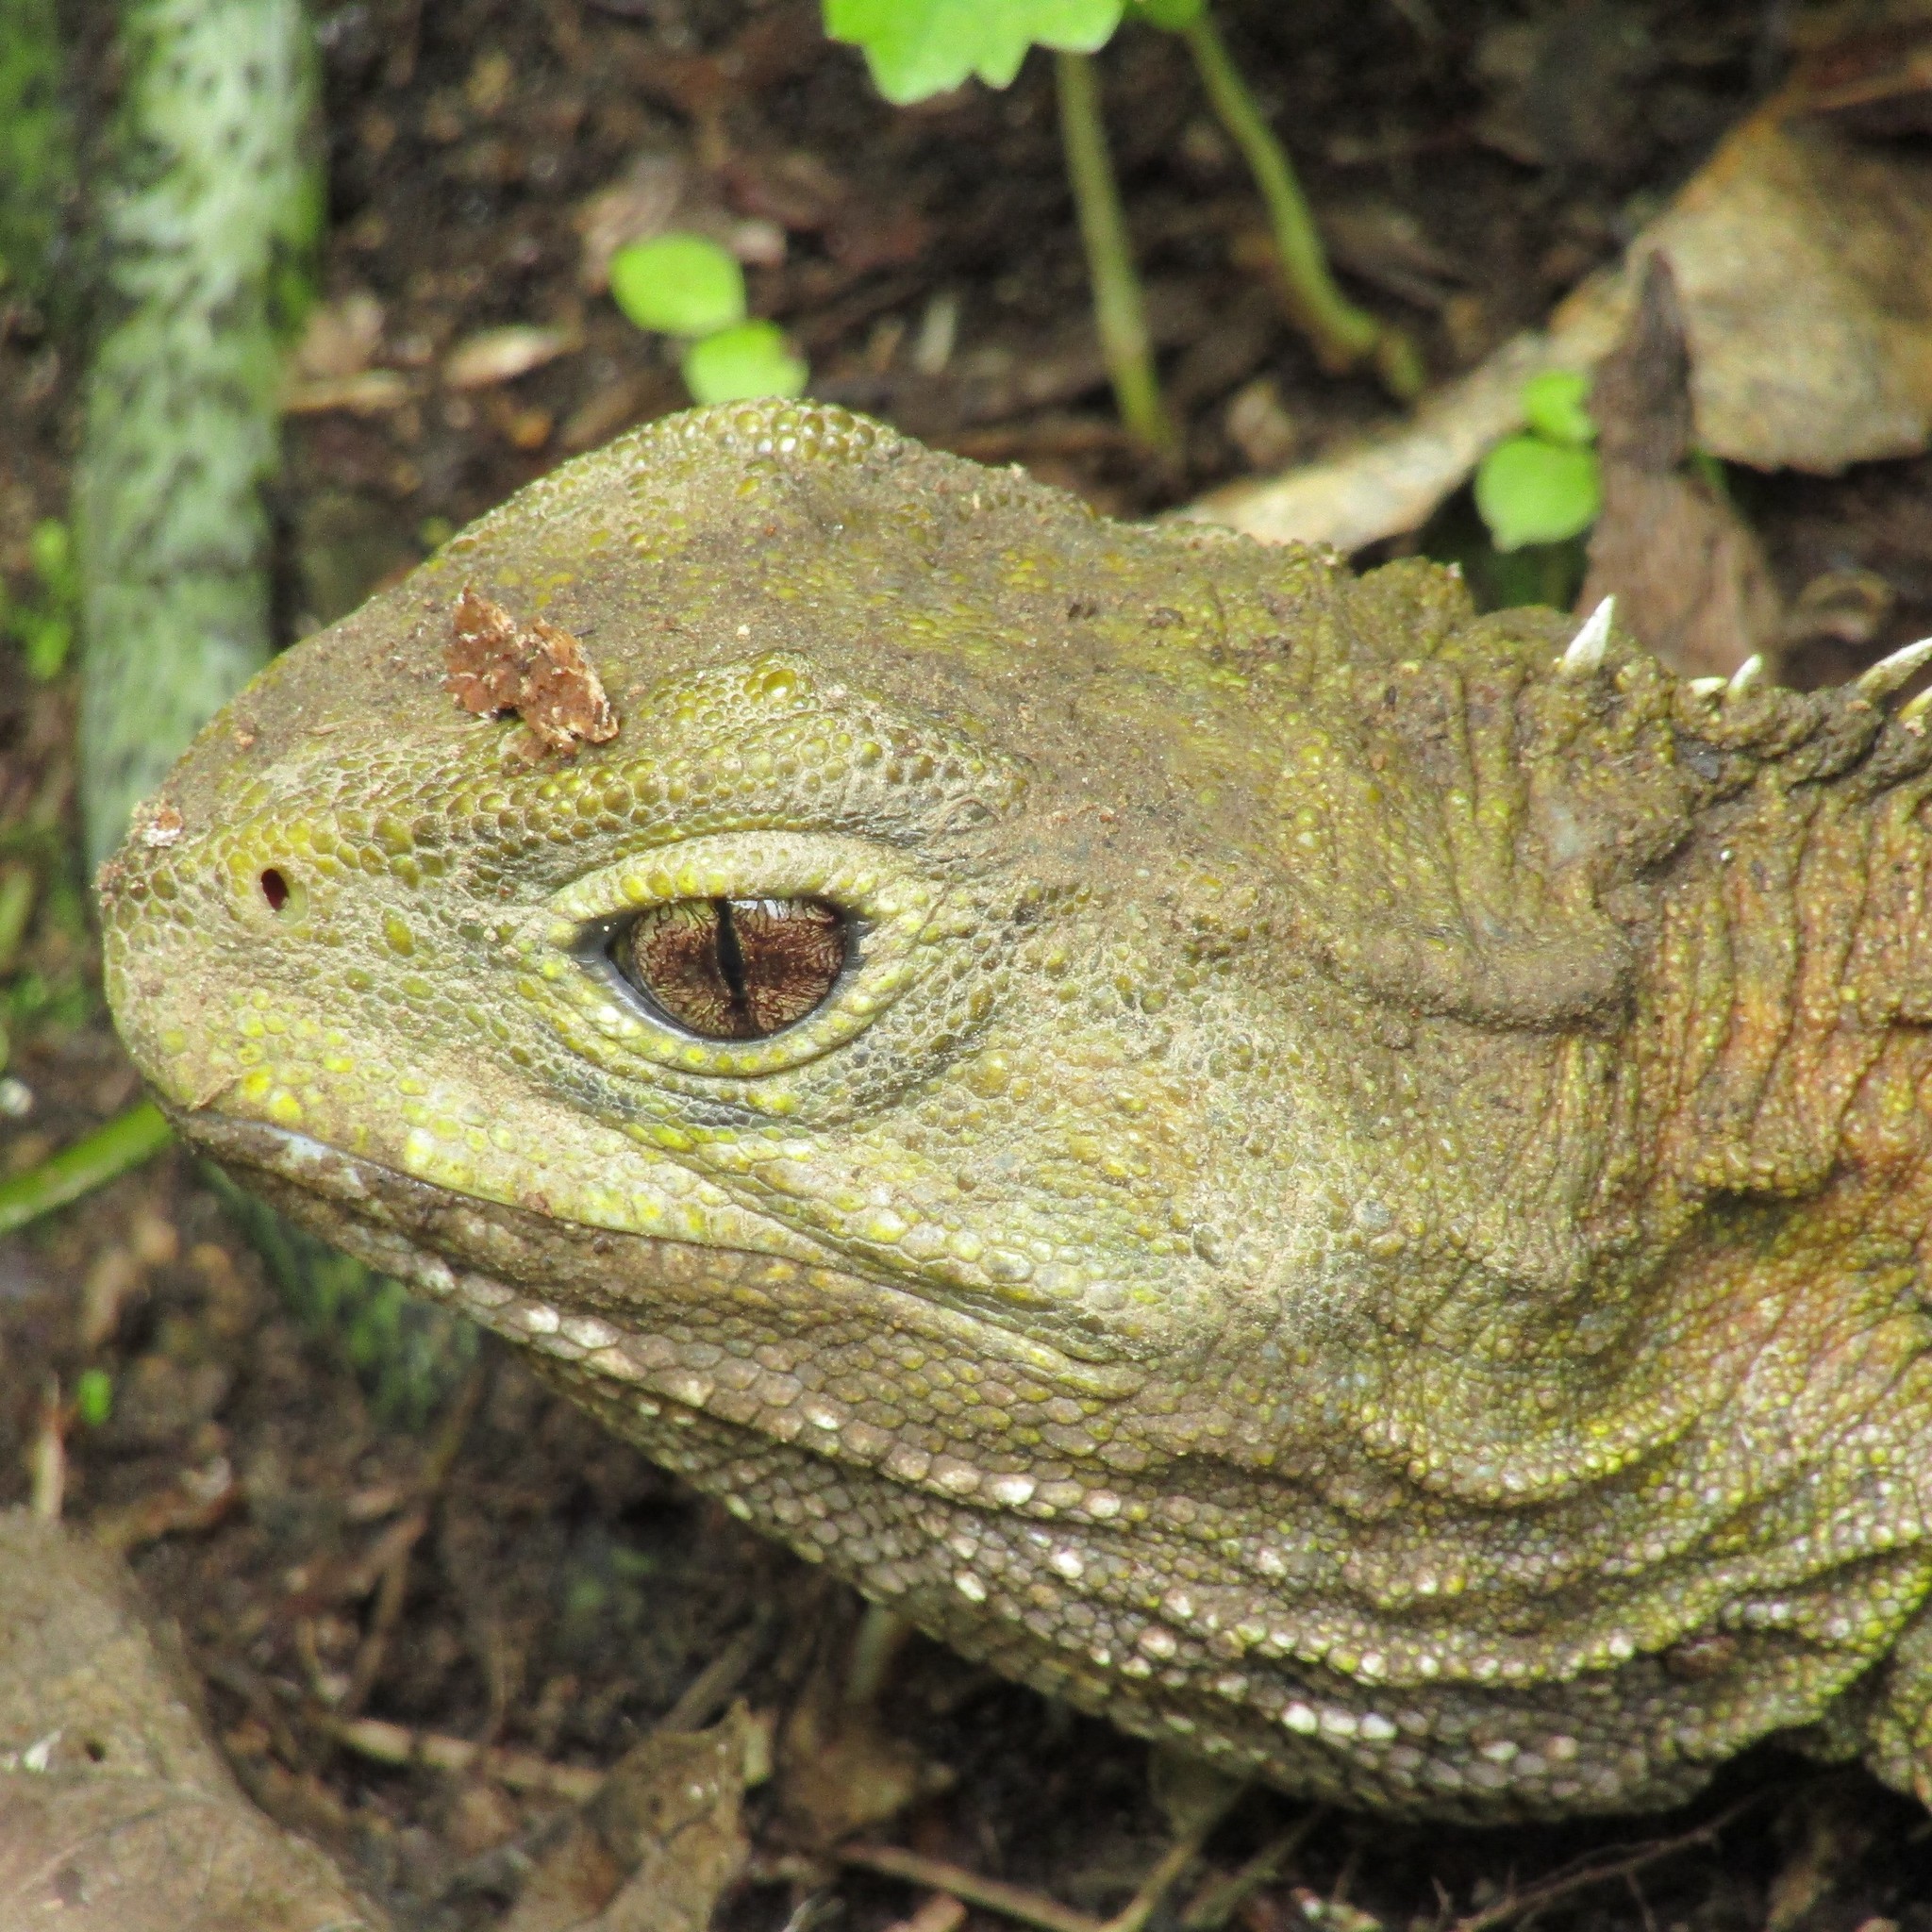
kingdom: Animalia
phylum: Chordata
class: Sphenodontia
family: Sphenodontidae
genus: Sphenodon
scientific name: Sphenodon punctatus
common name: Tuatara
